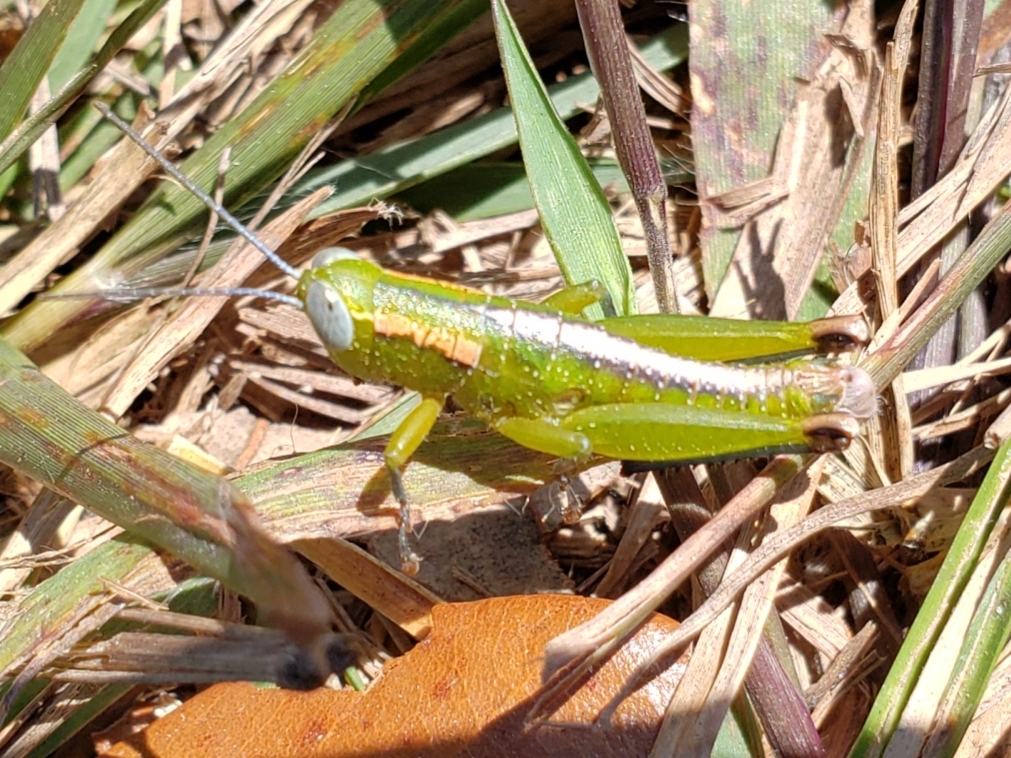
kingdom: Animalia
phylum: Arthropoda
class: Insecta
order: Orthoptera
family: Acrididae
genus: Floritettix
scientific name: Floritettix aptera
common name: Wingless florida locust
